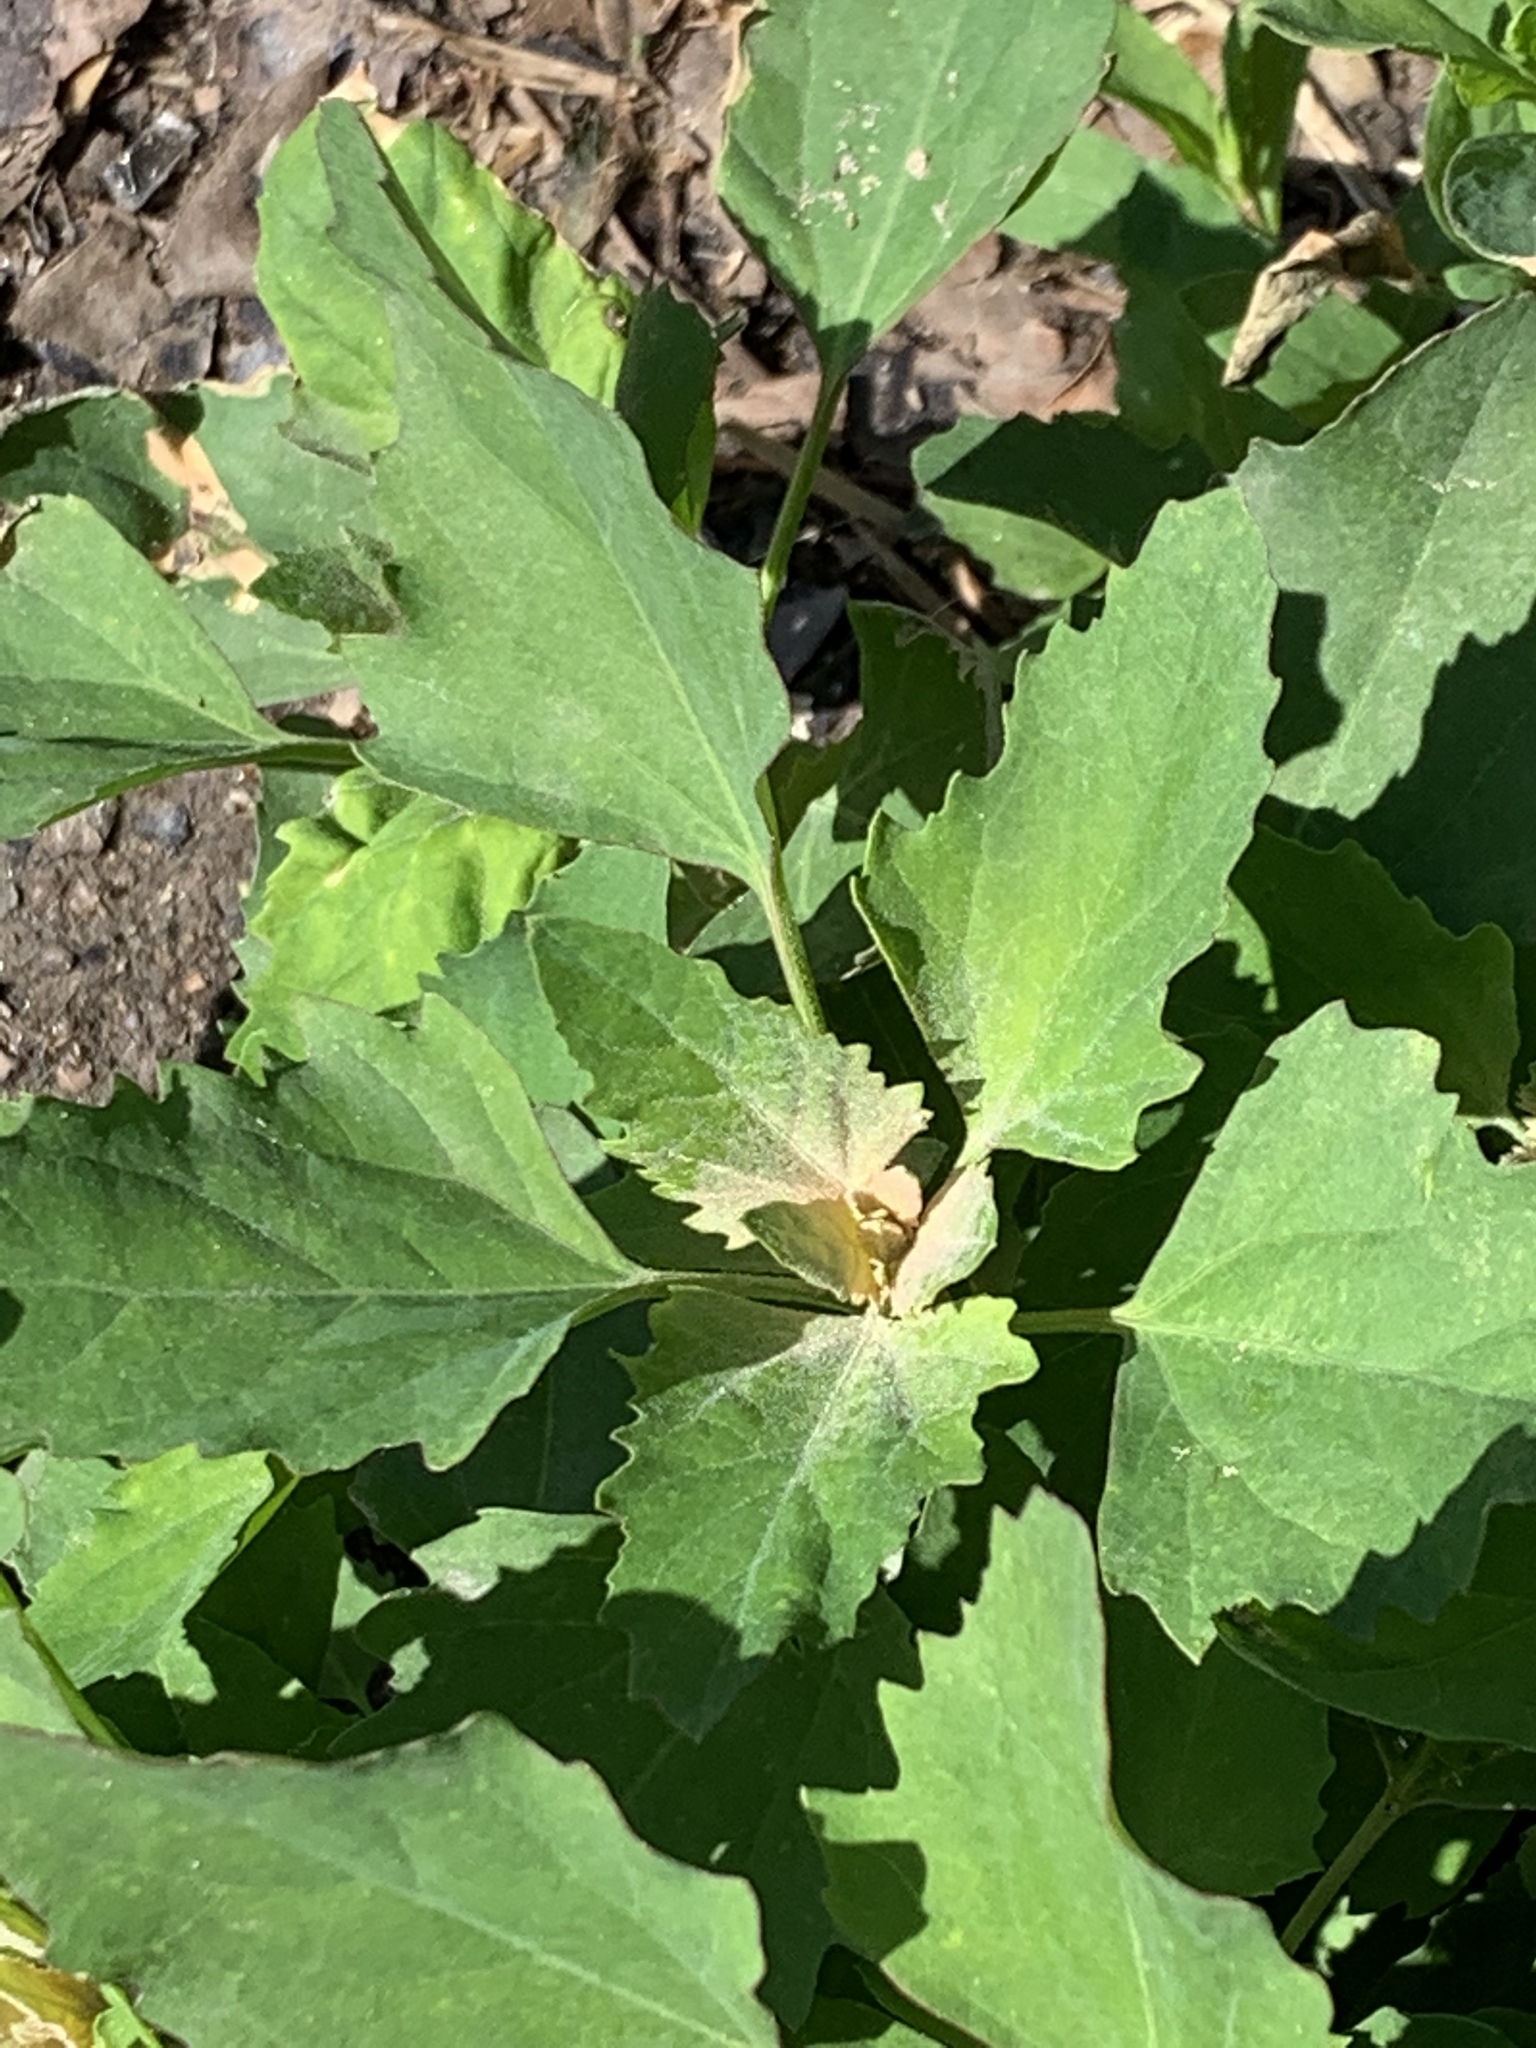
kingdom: Plantae
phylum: Tracheophyta
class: Magnoliopsida
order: Caryophyllales
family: Amaranthaceae
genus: Chenopodium
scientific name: Chenopodium album
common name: Fat-hen
